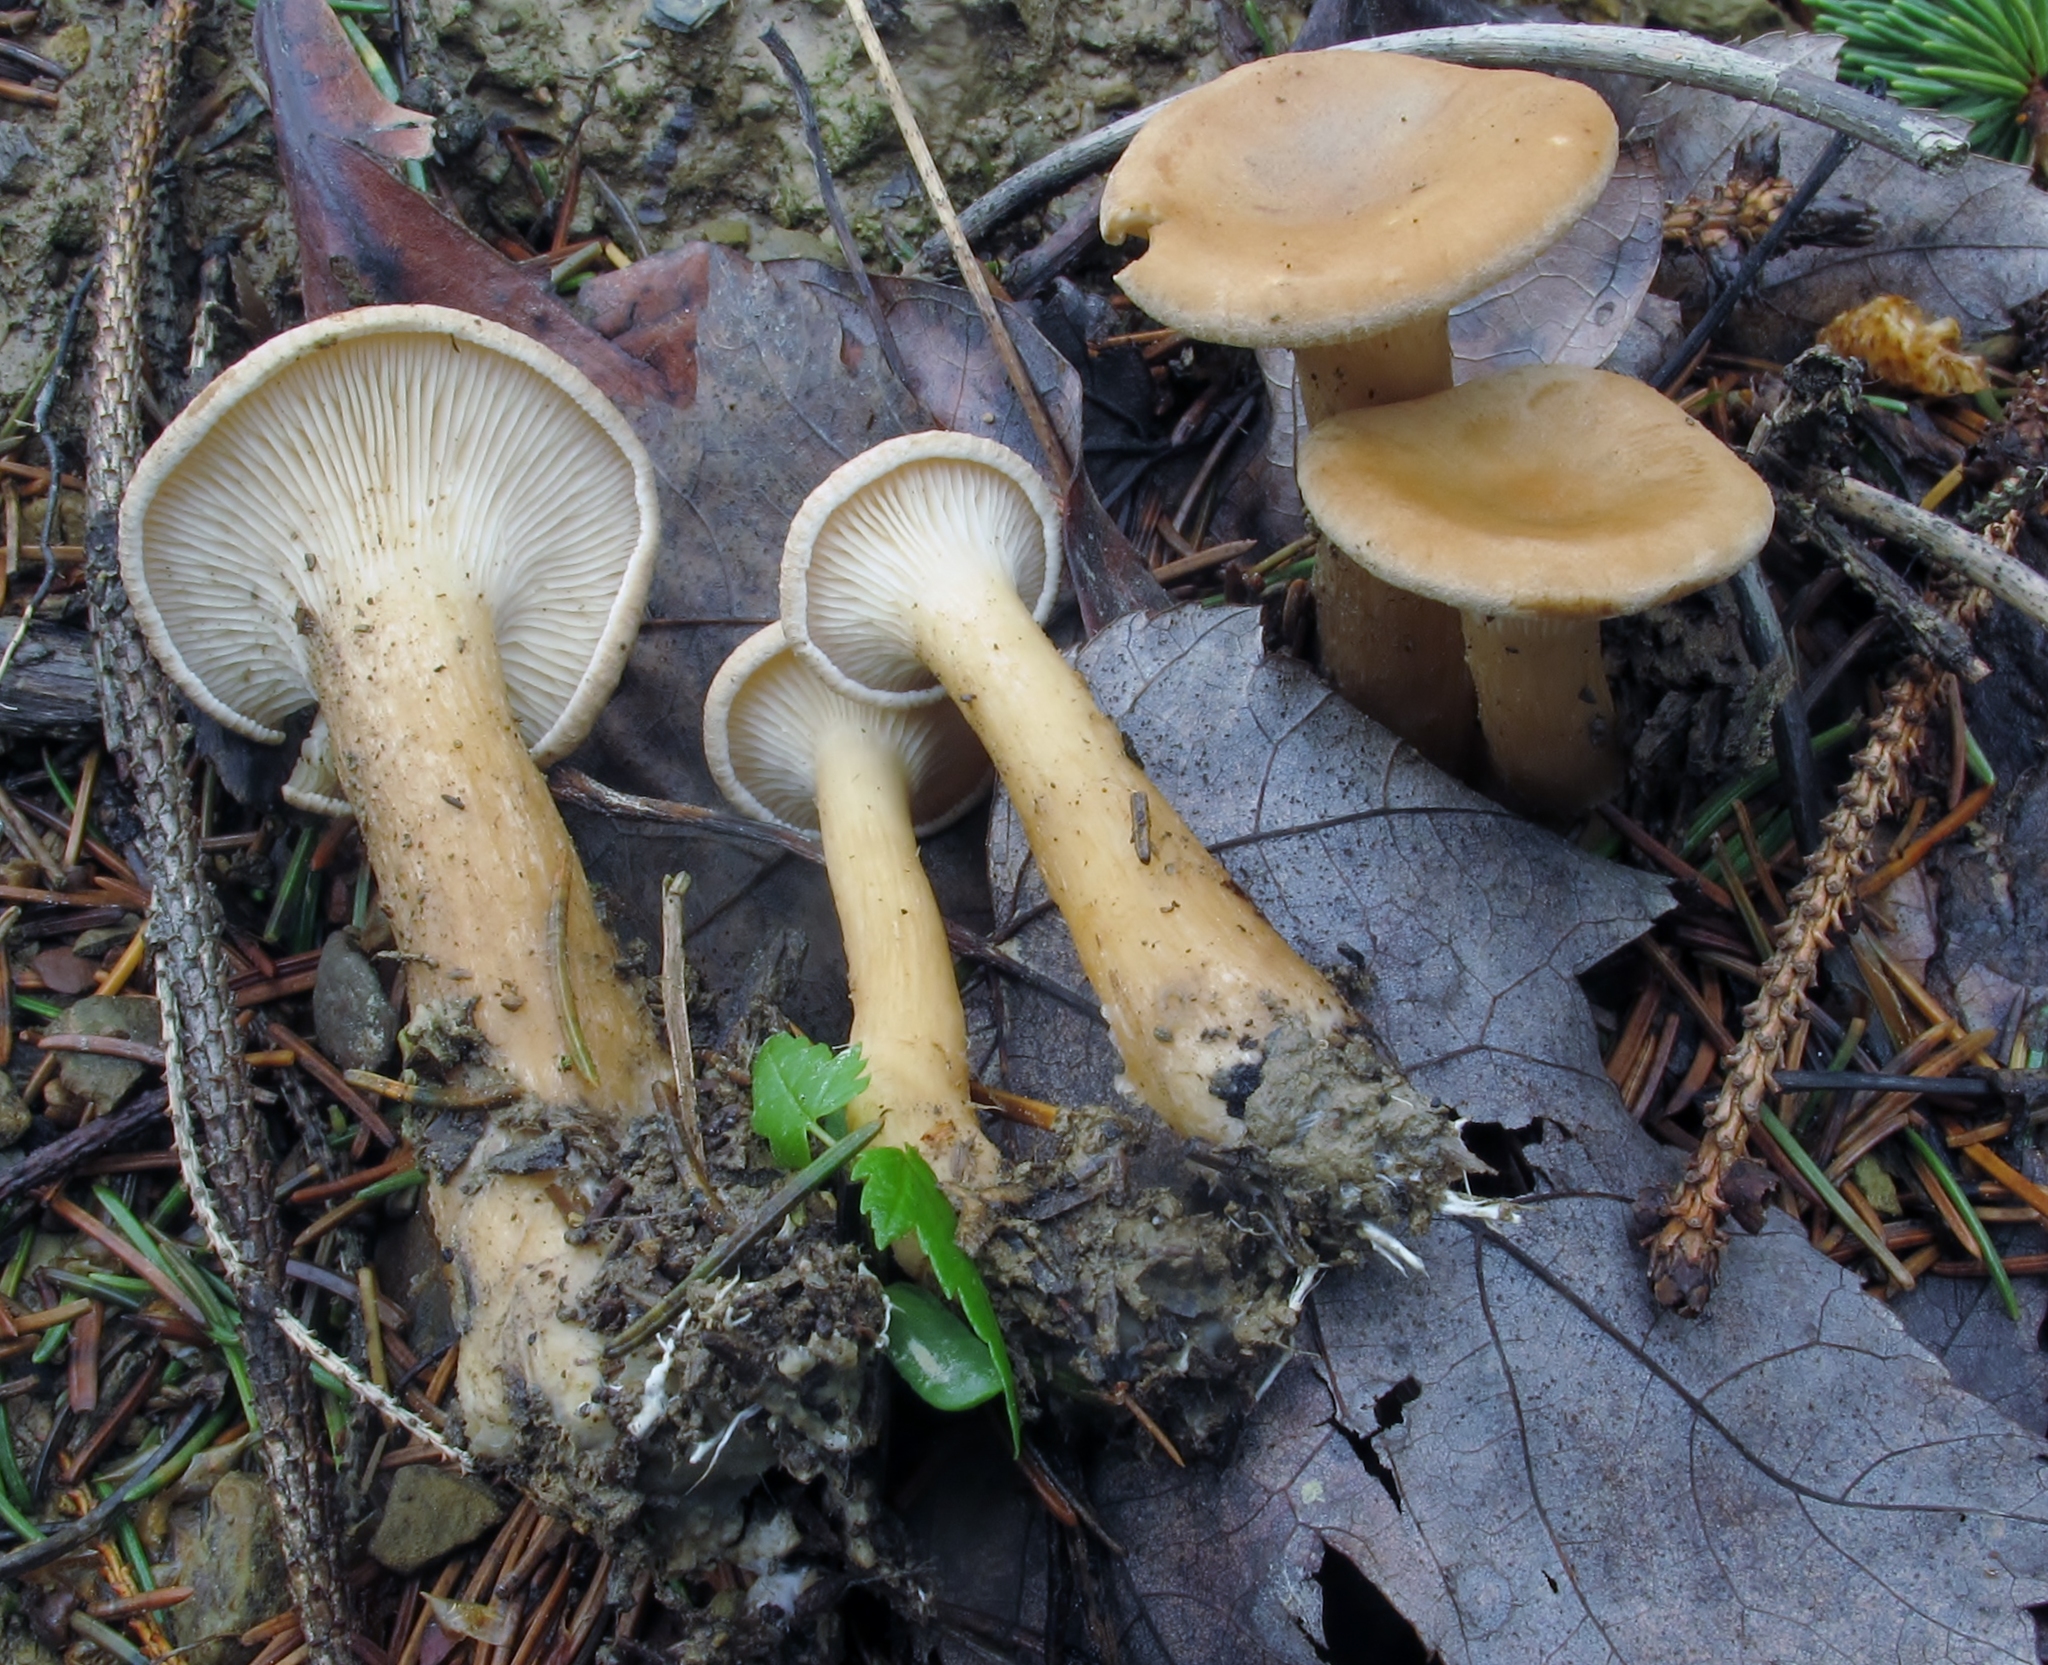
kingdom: Fungi
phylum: Basidiomycota
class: Agaricomycetes
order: Agaricales
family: Tricholomataceae
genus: Infundibulicybe
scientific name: Infundibulicybe squamulosa
